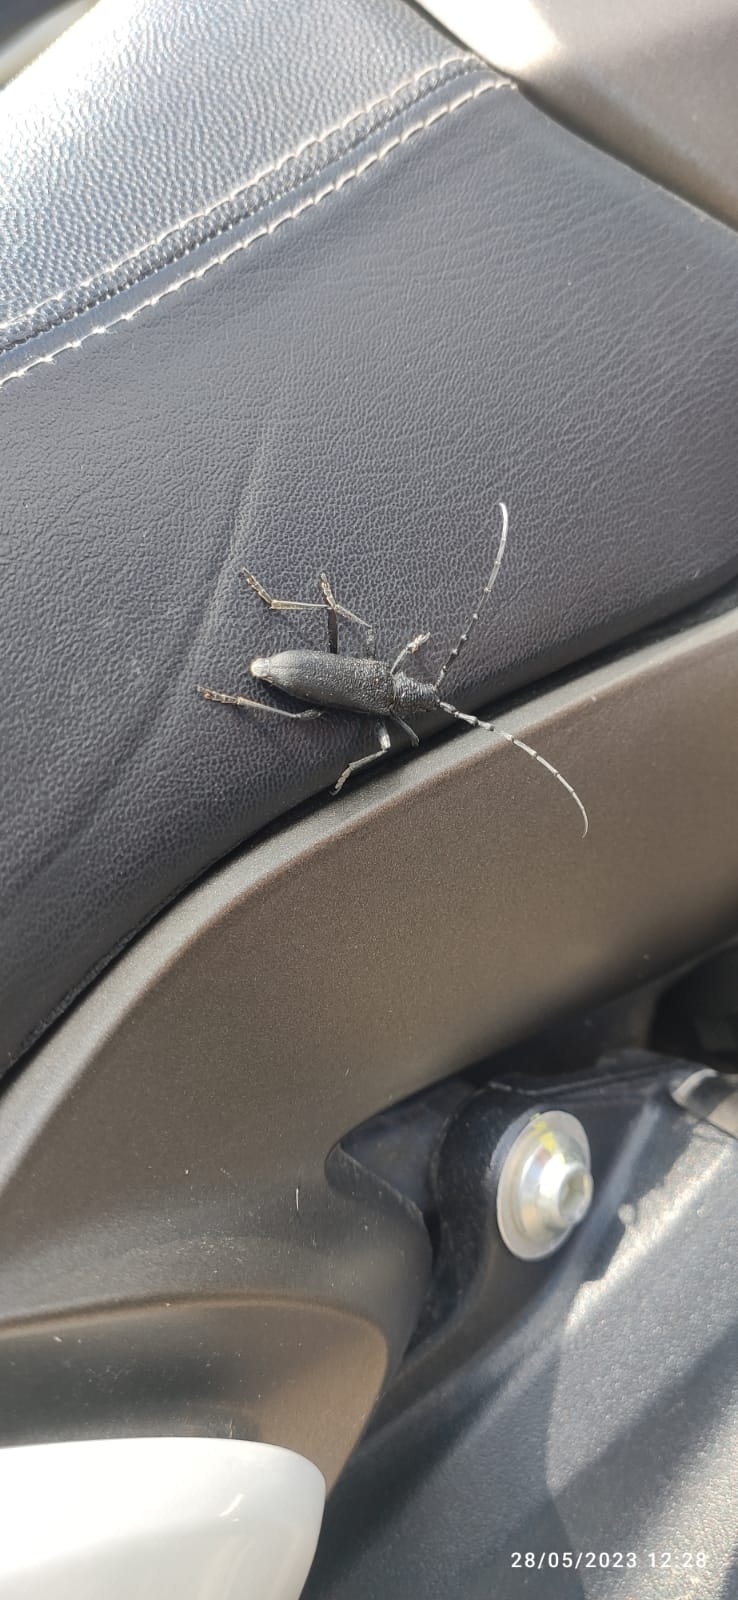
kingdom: Animalia
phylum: Arthropoda
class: Insecta
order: Coleoptera
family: Cerambycidae
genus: Cerambyx
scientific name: Cerambyx scopolii
